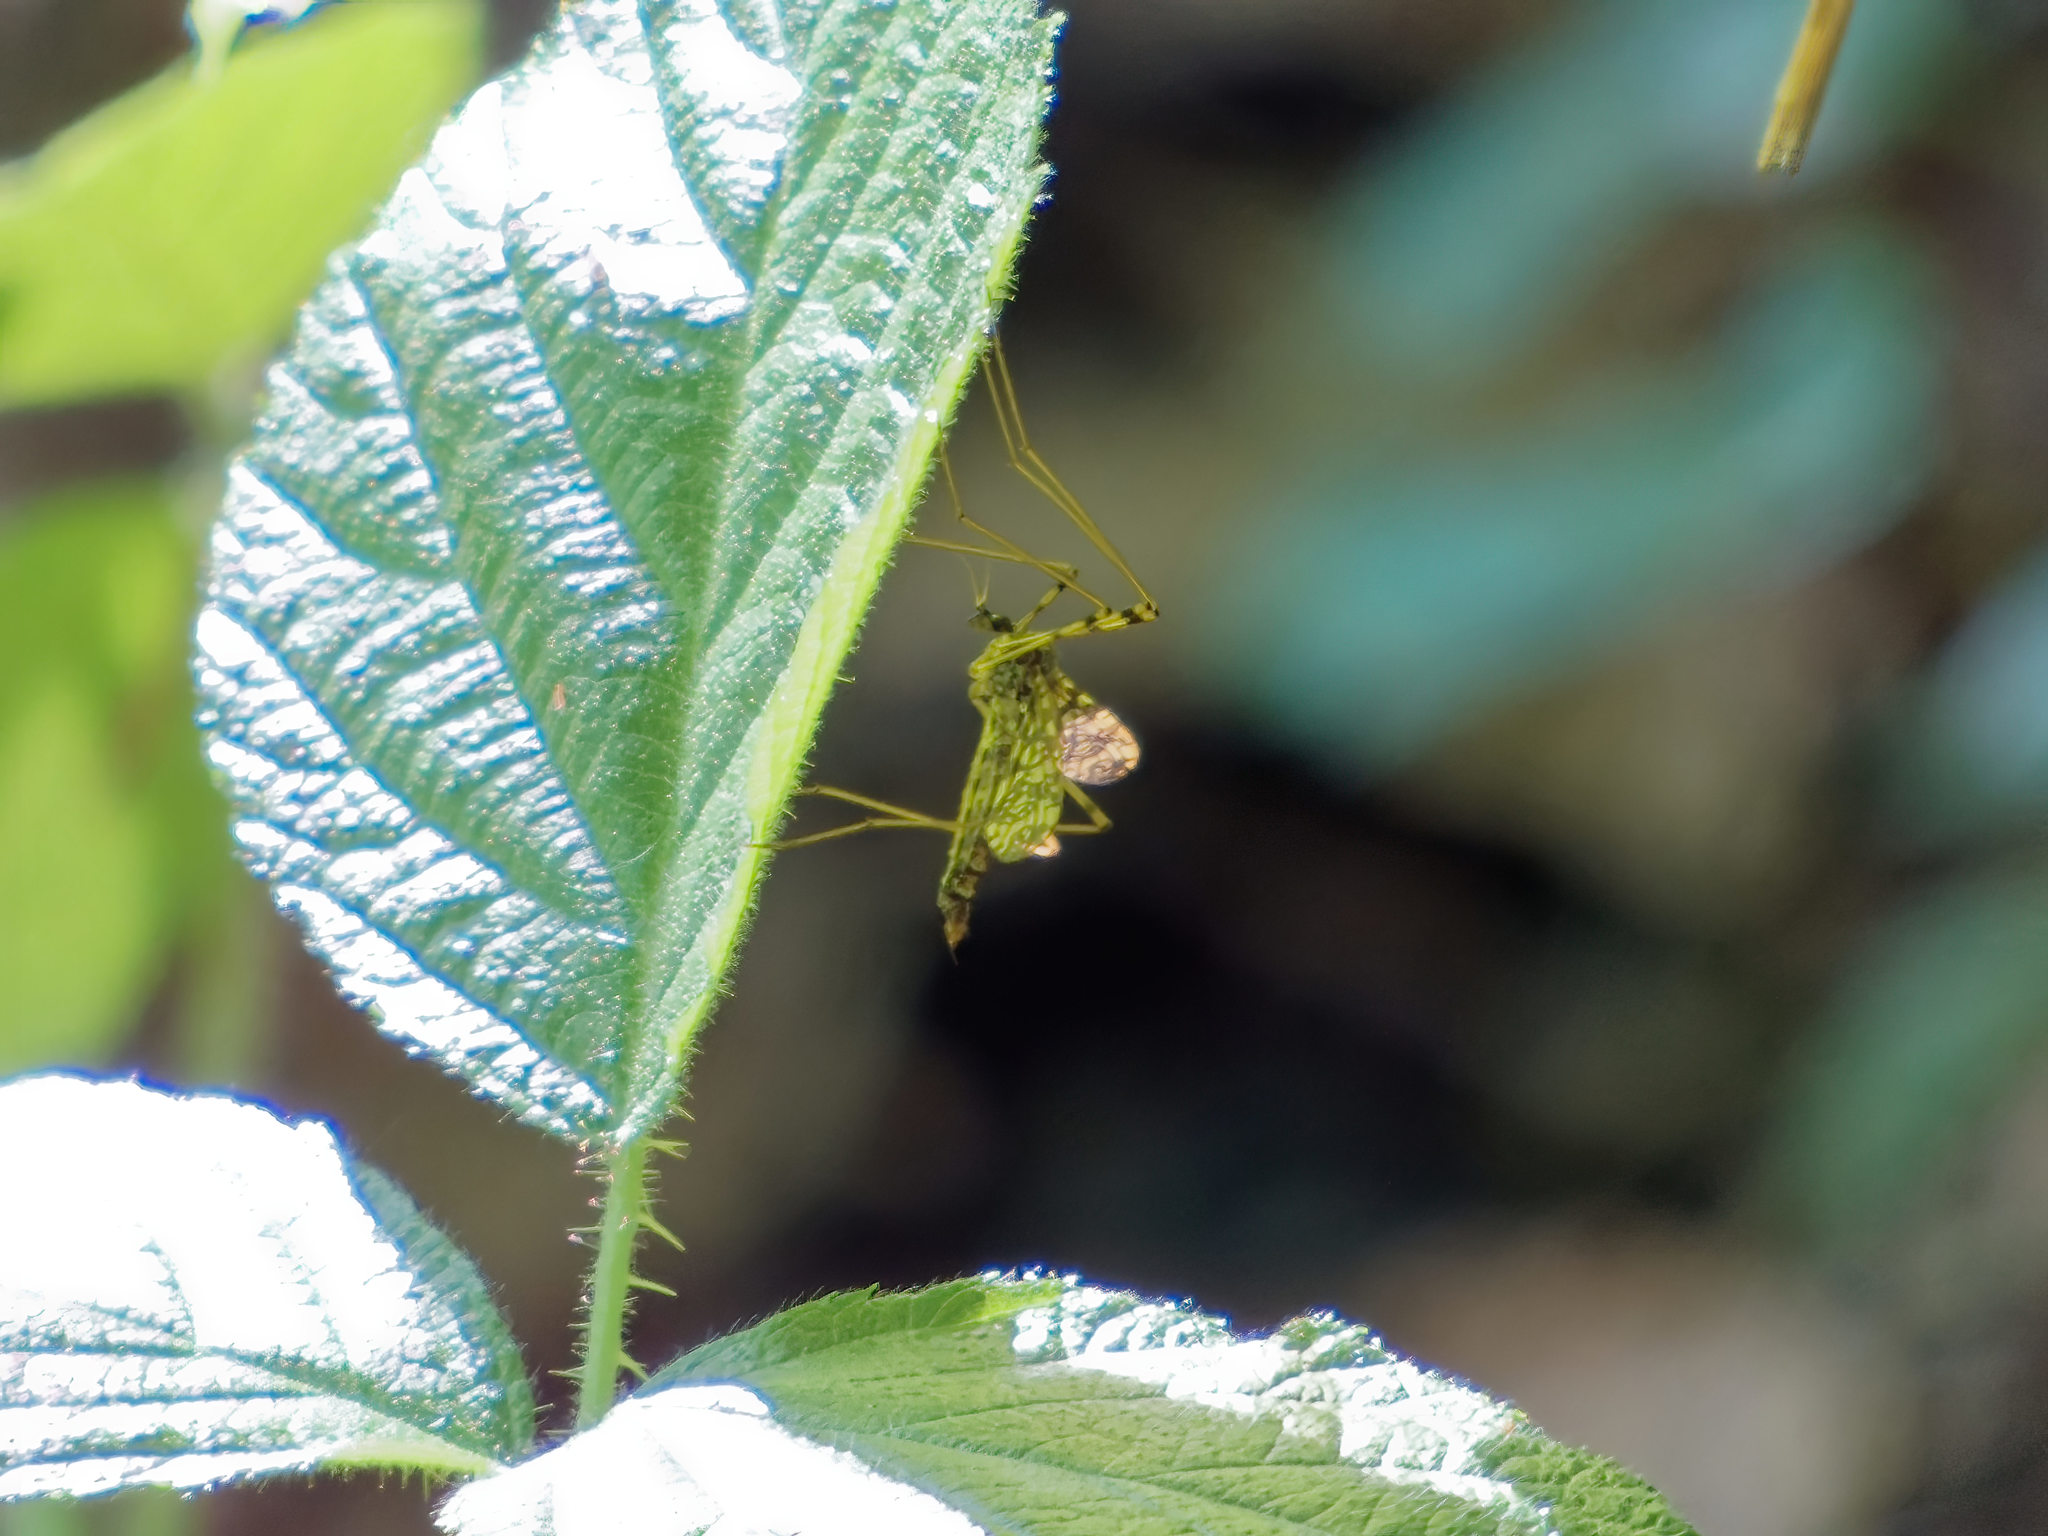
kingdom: Animalia
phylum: Arthropoda
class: Insecta
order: Diptera
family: Limoniidae
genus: Epiphragma
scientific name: Epiphragma ocellare
